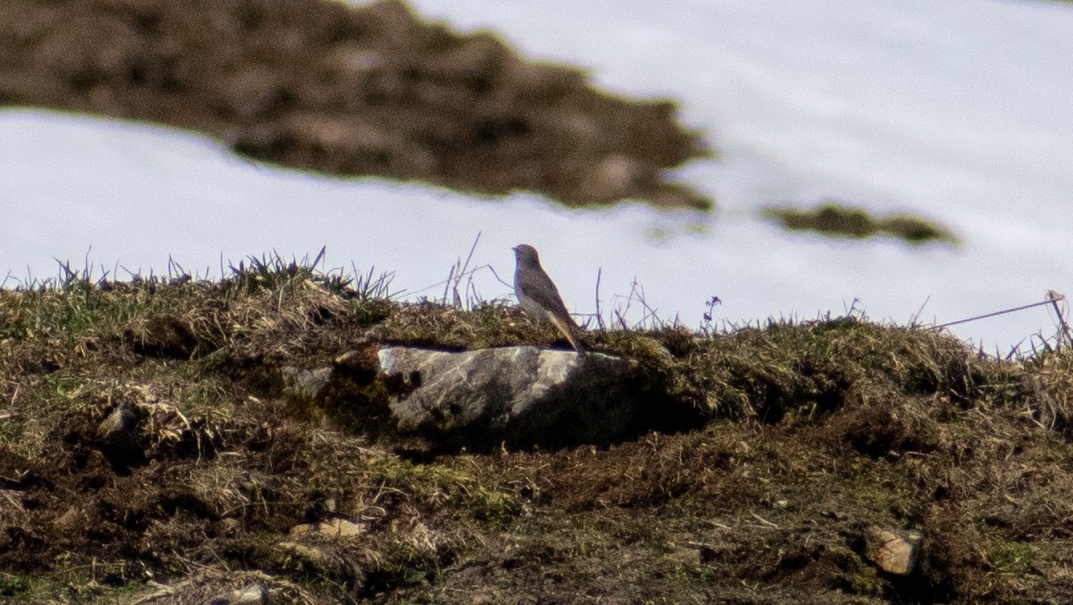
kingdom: Animalia
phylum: Chordata
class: Aves
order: Passeriformes
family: Muscicapidae
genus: Phoenicurus
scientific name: Phoenicurus ochruros
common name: Black redstart
